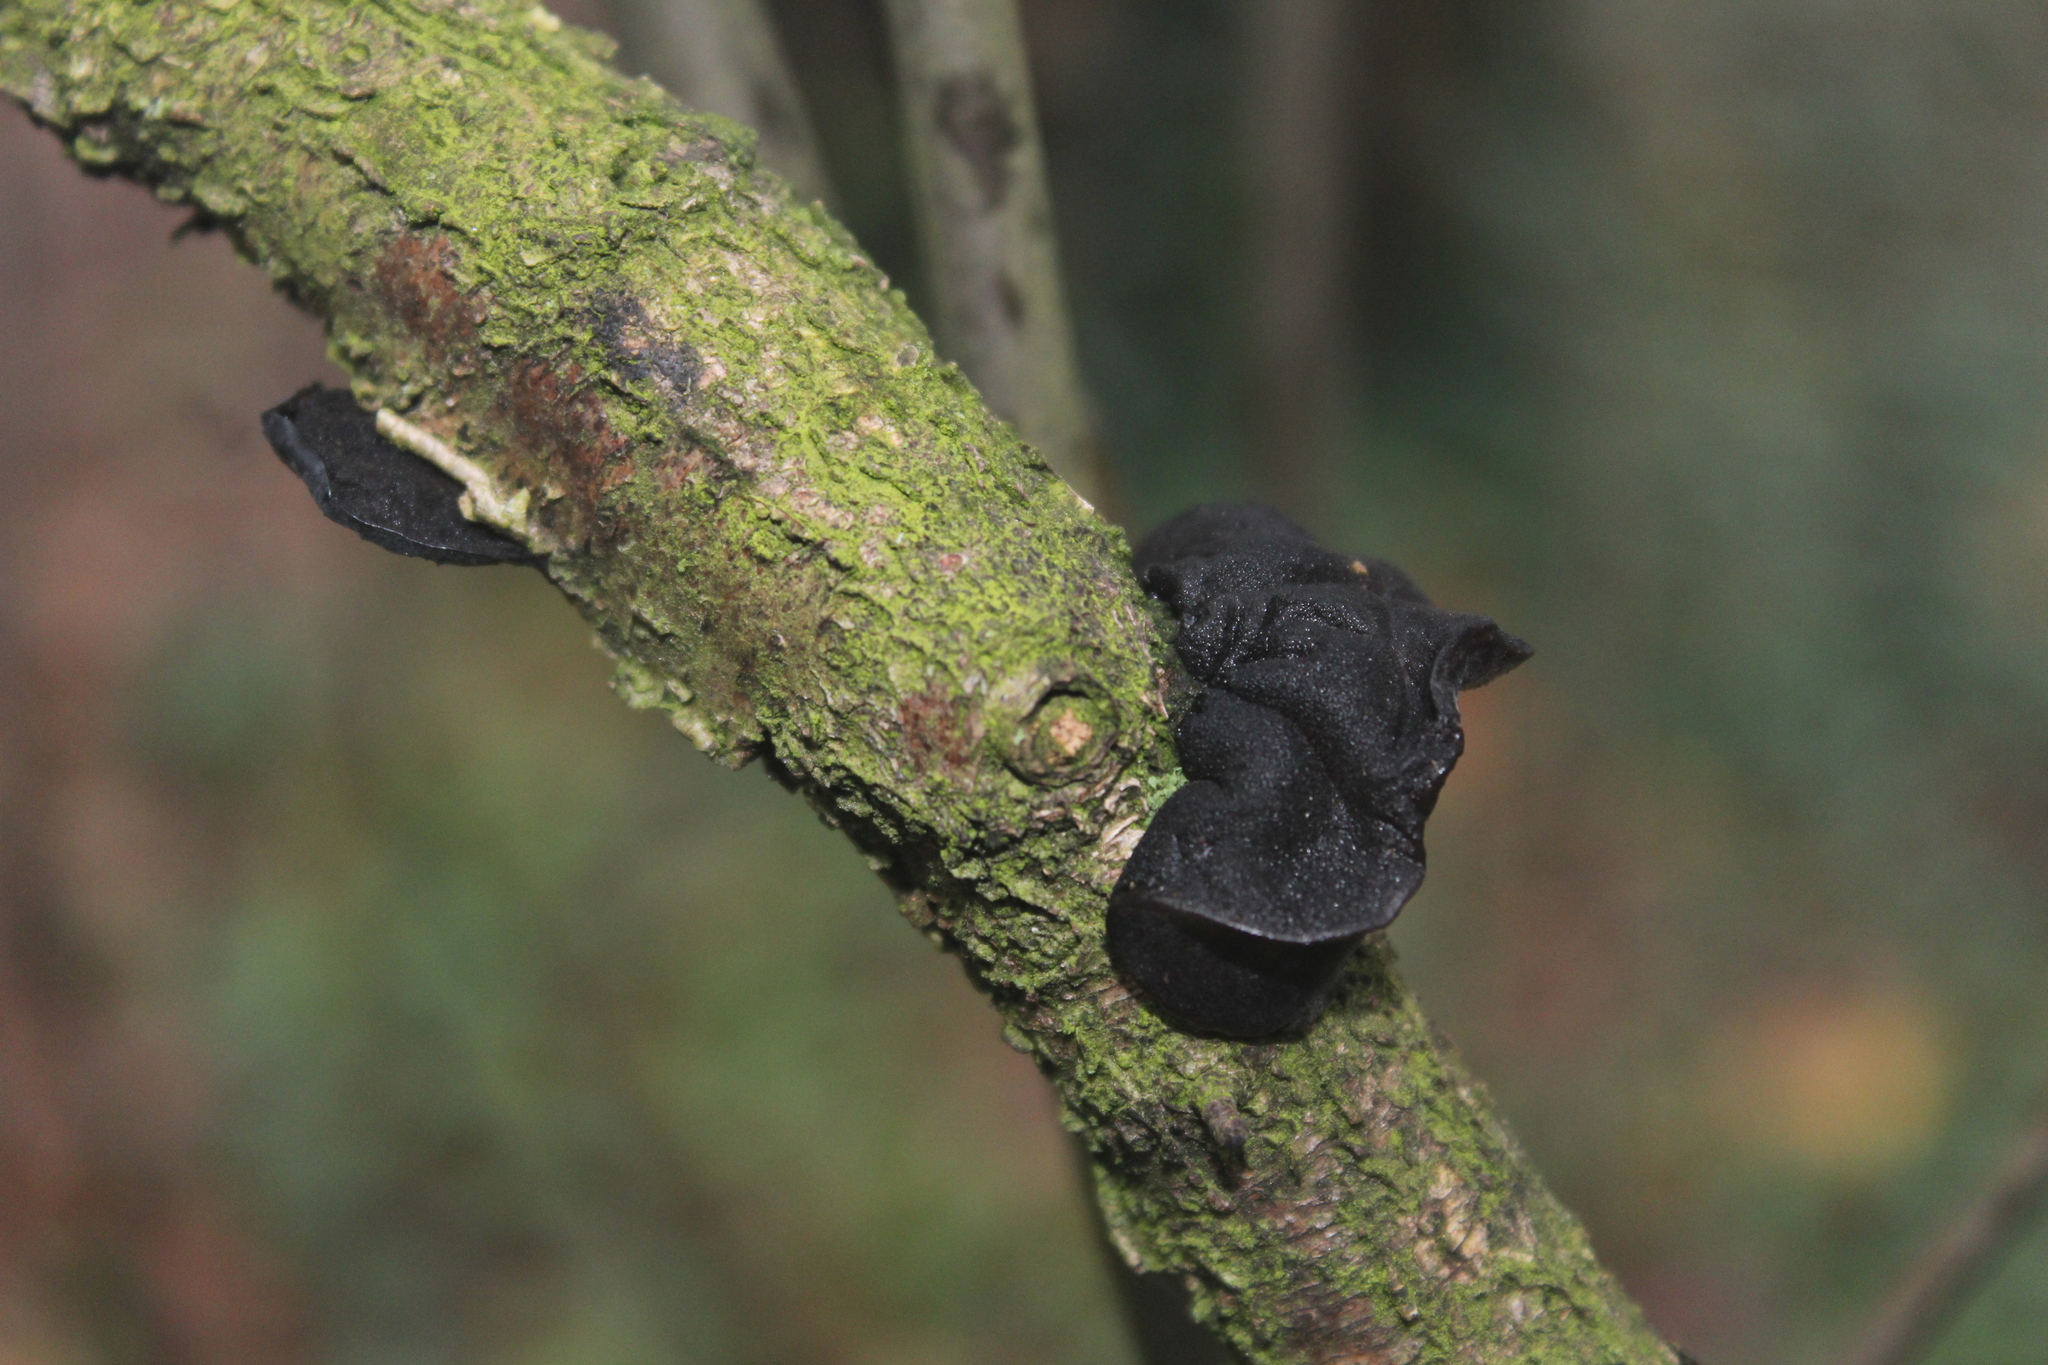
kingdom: Fungi
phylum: Basidiomycota
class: Agaricomycetes
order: Auriculariales
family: Auriculariaceae
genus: Exidia
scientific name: Exidia glandulosa
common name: Witches' butter
